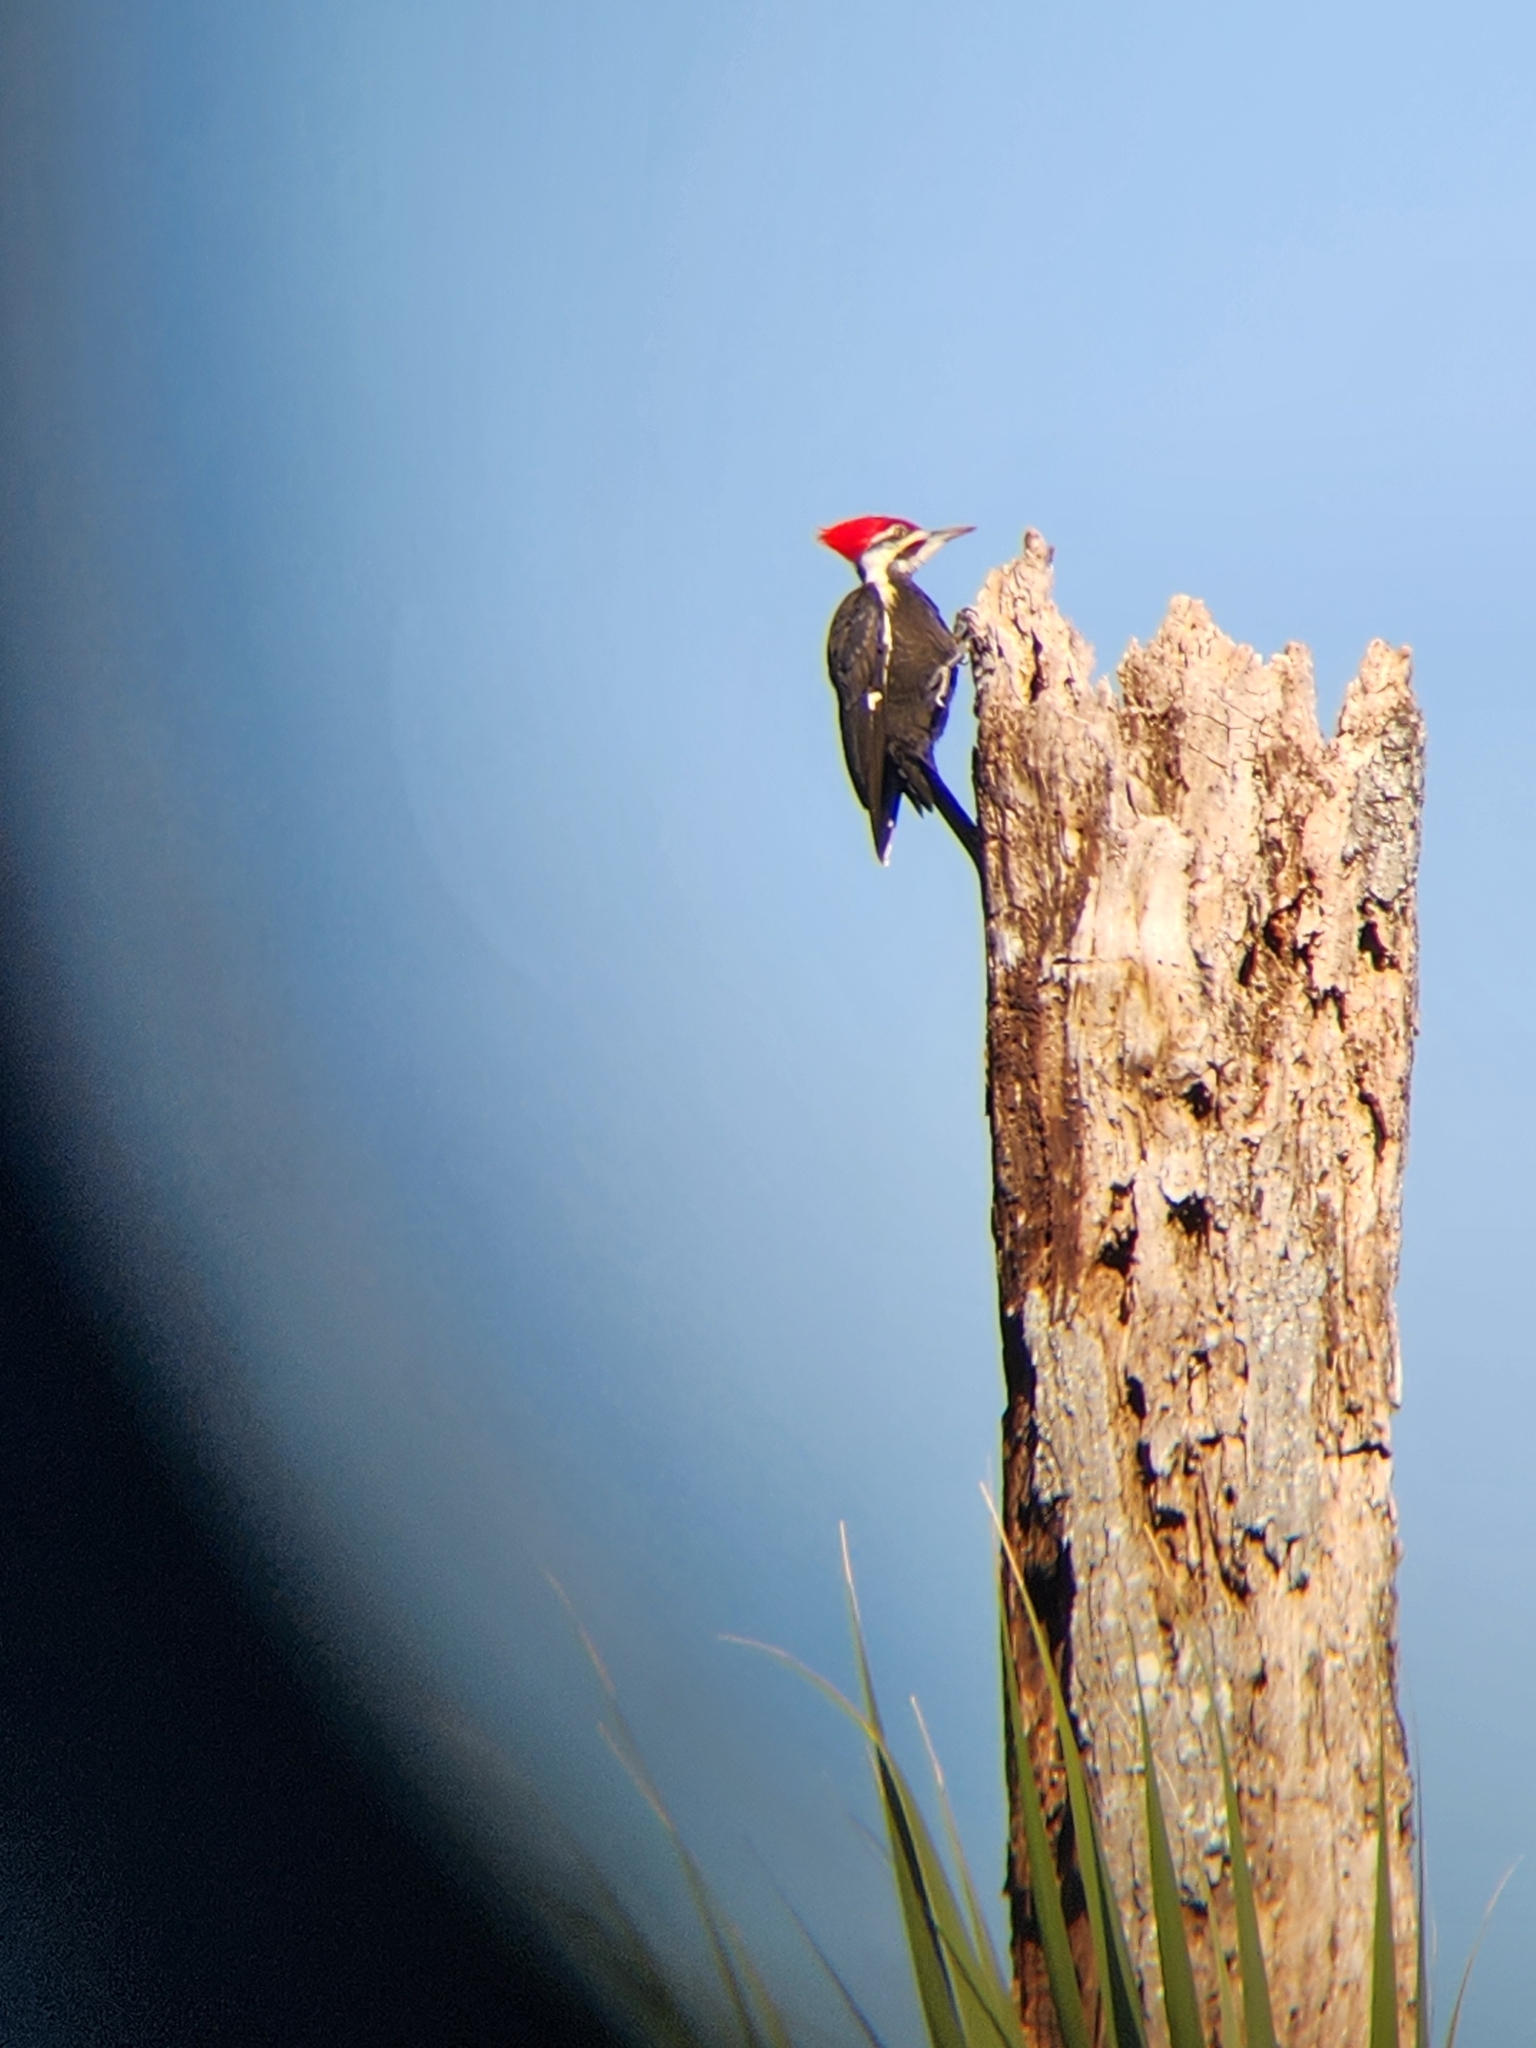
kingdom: Animalia
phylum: Chordata
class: Aves
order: Piciformes
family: Picidae
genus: Dryocopus
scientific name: Dryocopus pileatus
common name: Pileated woodpecker
